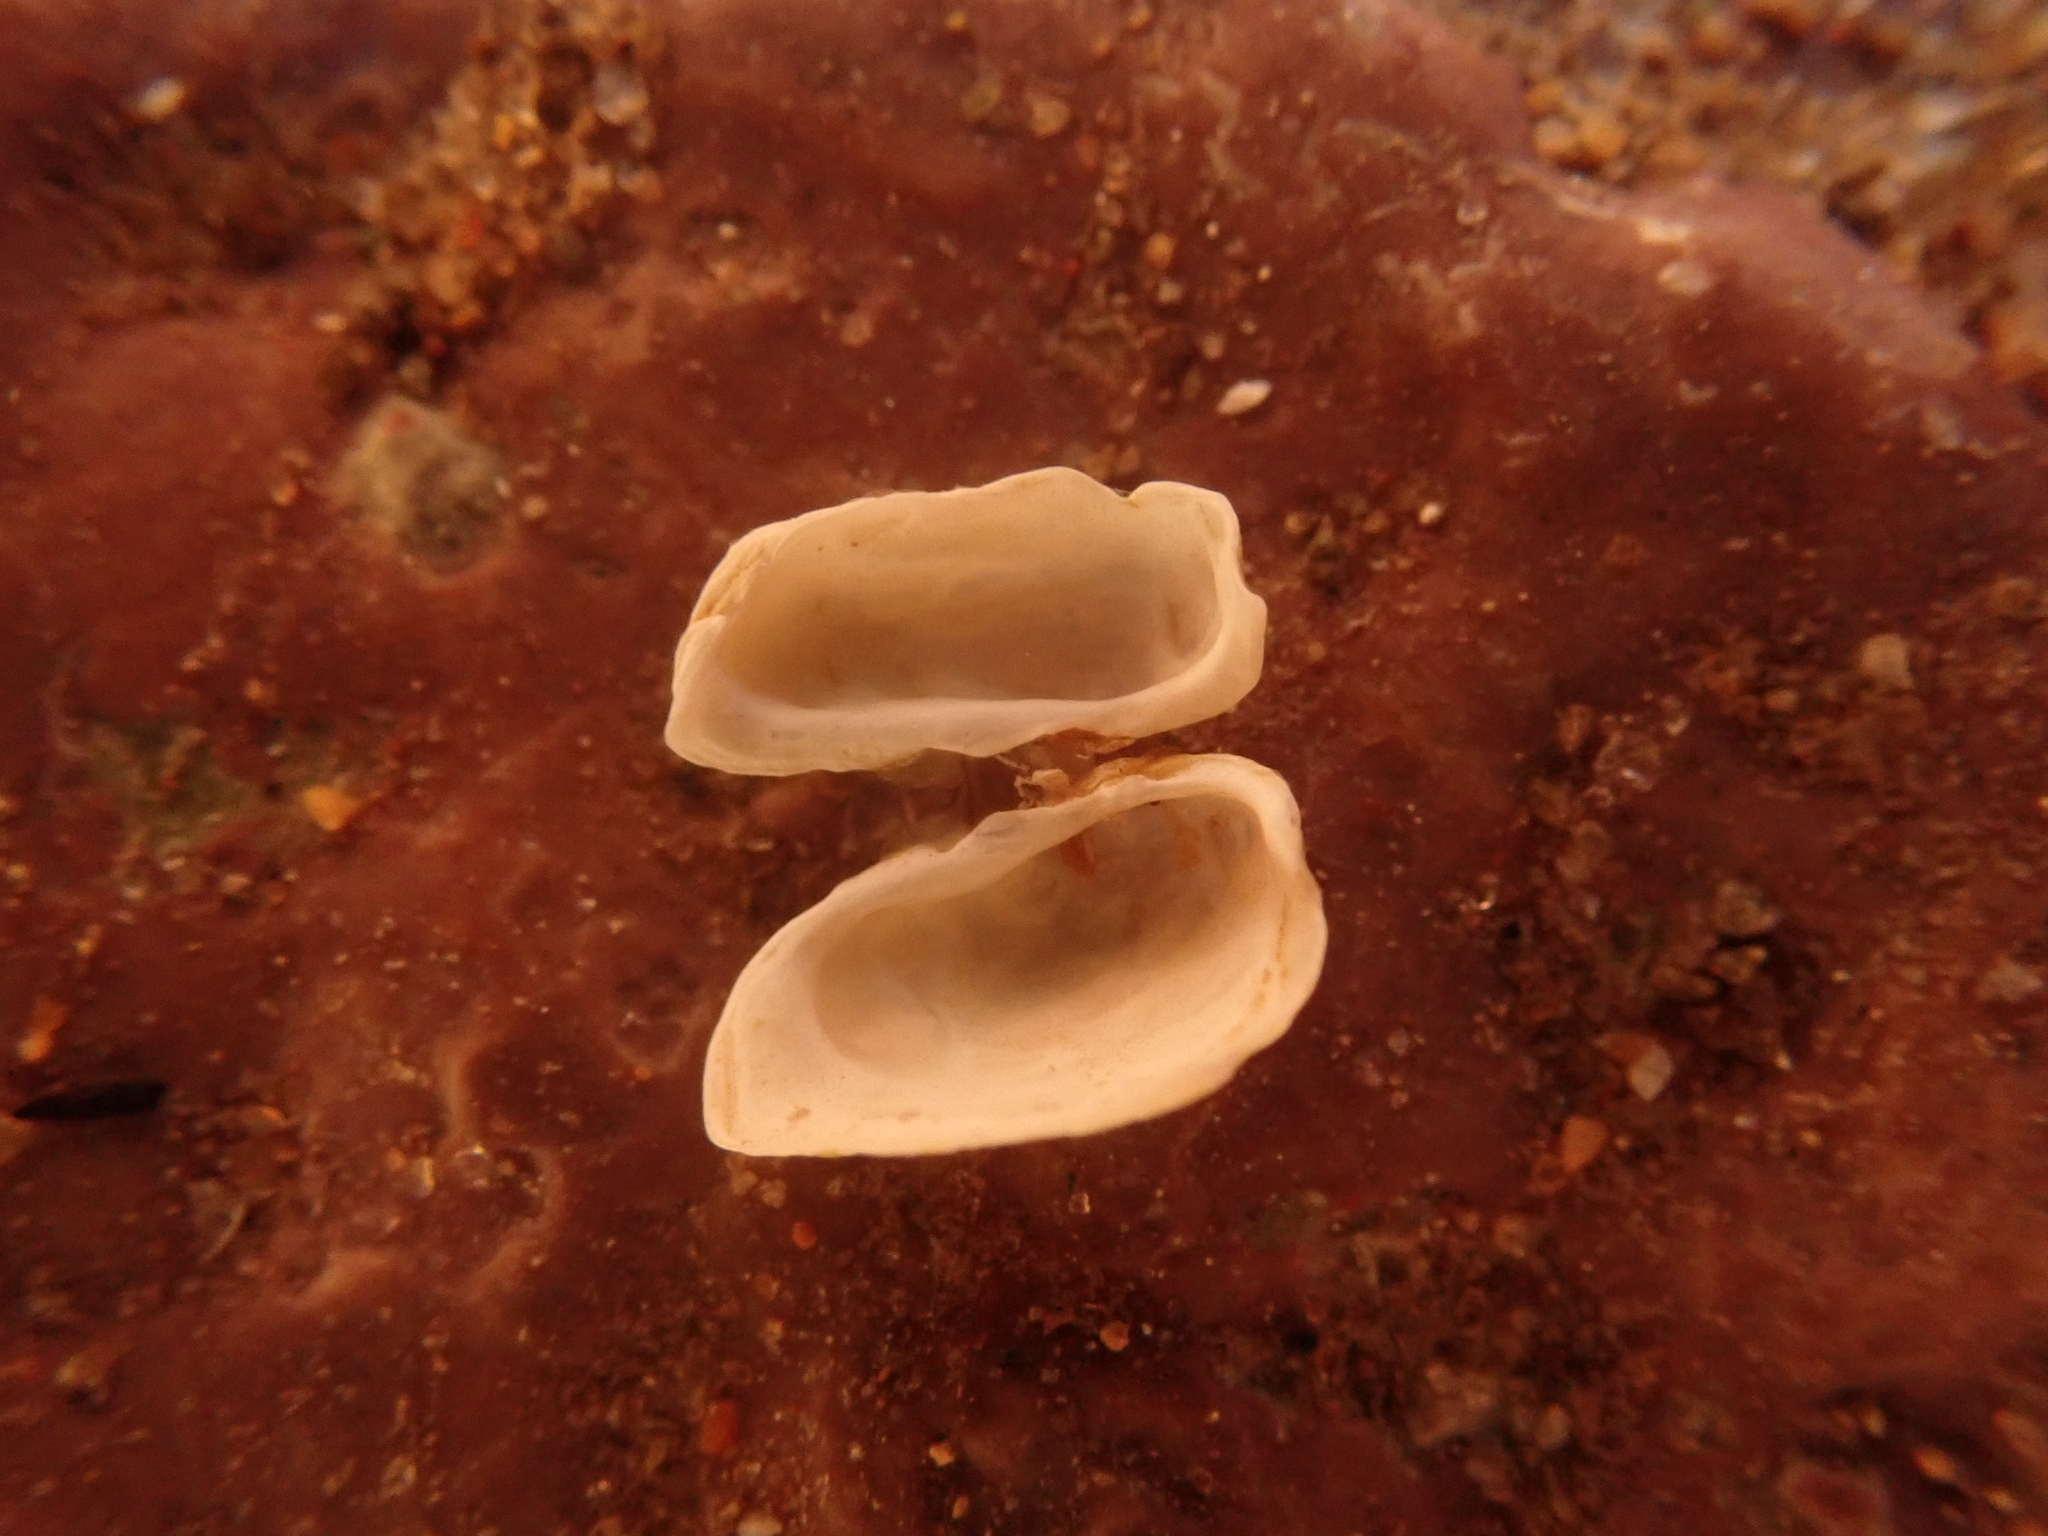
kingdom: Animalia
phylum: Mollusca
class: Bivalvia
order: Adapedonta
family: Hiatellidae
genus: Hiatella
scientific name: Hiatella arctica
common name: Arctic hiatella
